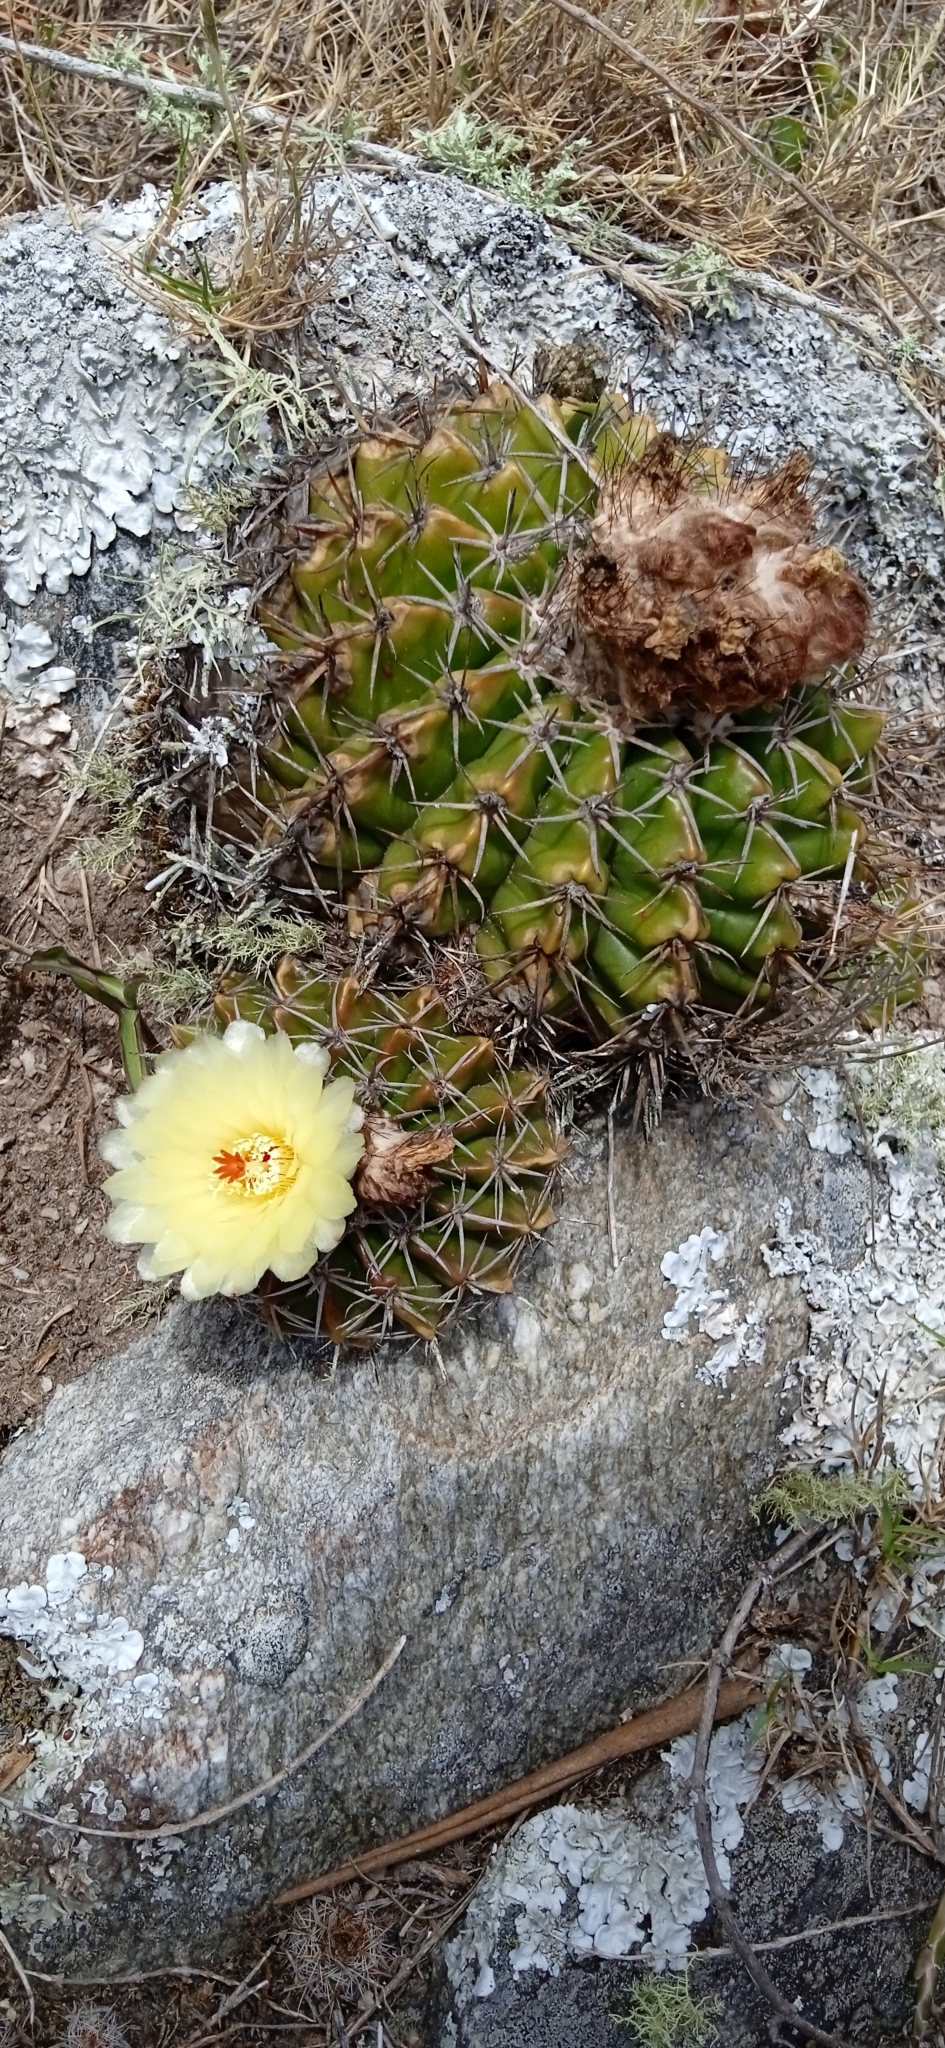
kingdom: Plantae
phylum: Tracheophyta
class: Magnoliopsida
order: Caryophyllales
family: Cactaceae
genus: Parodia
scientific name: Parodia erinacea
